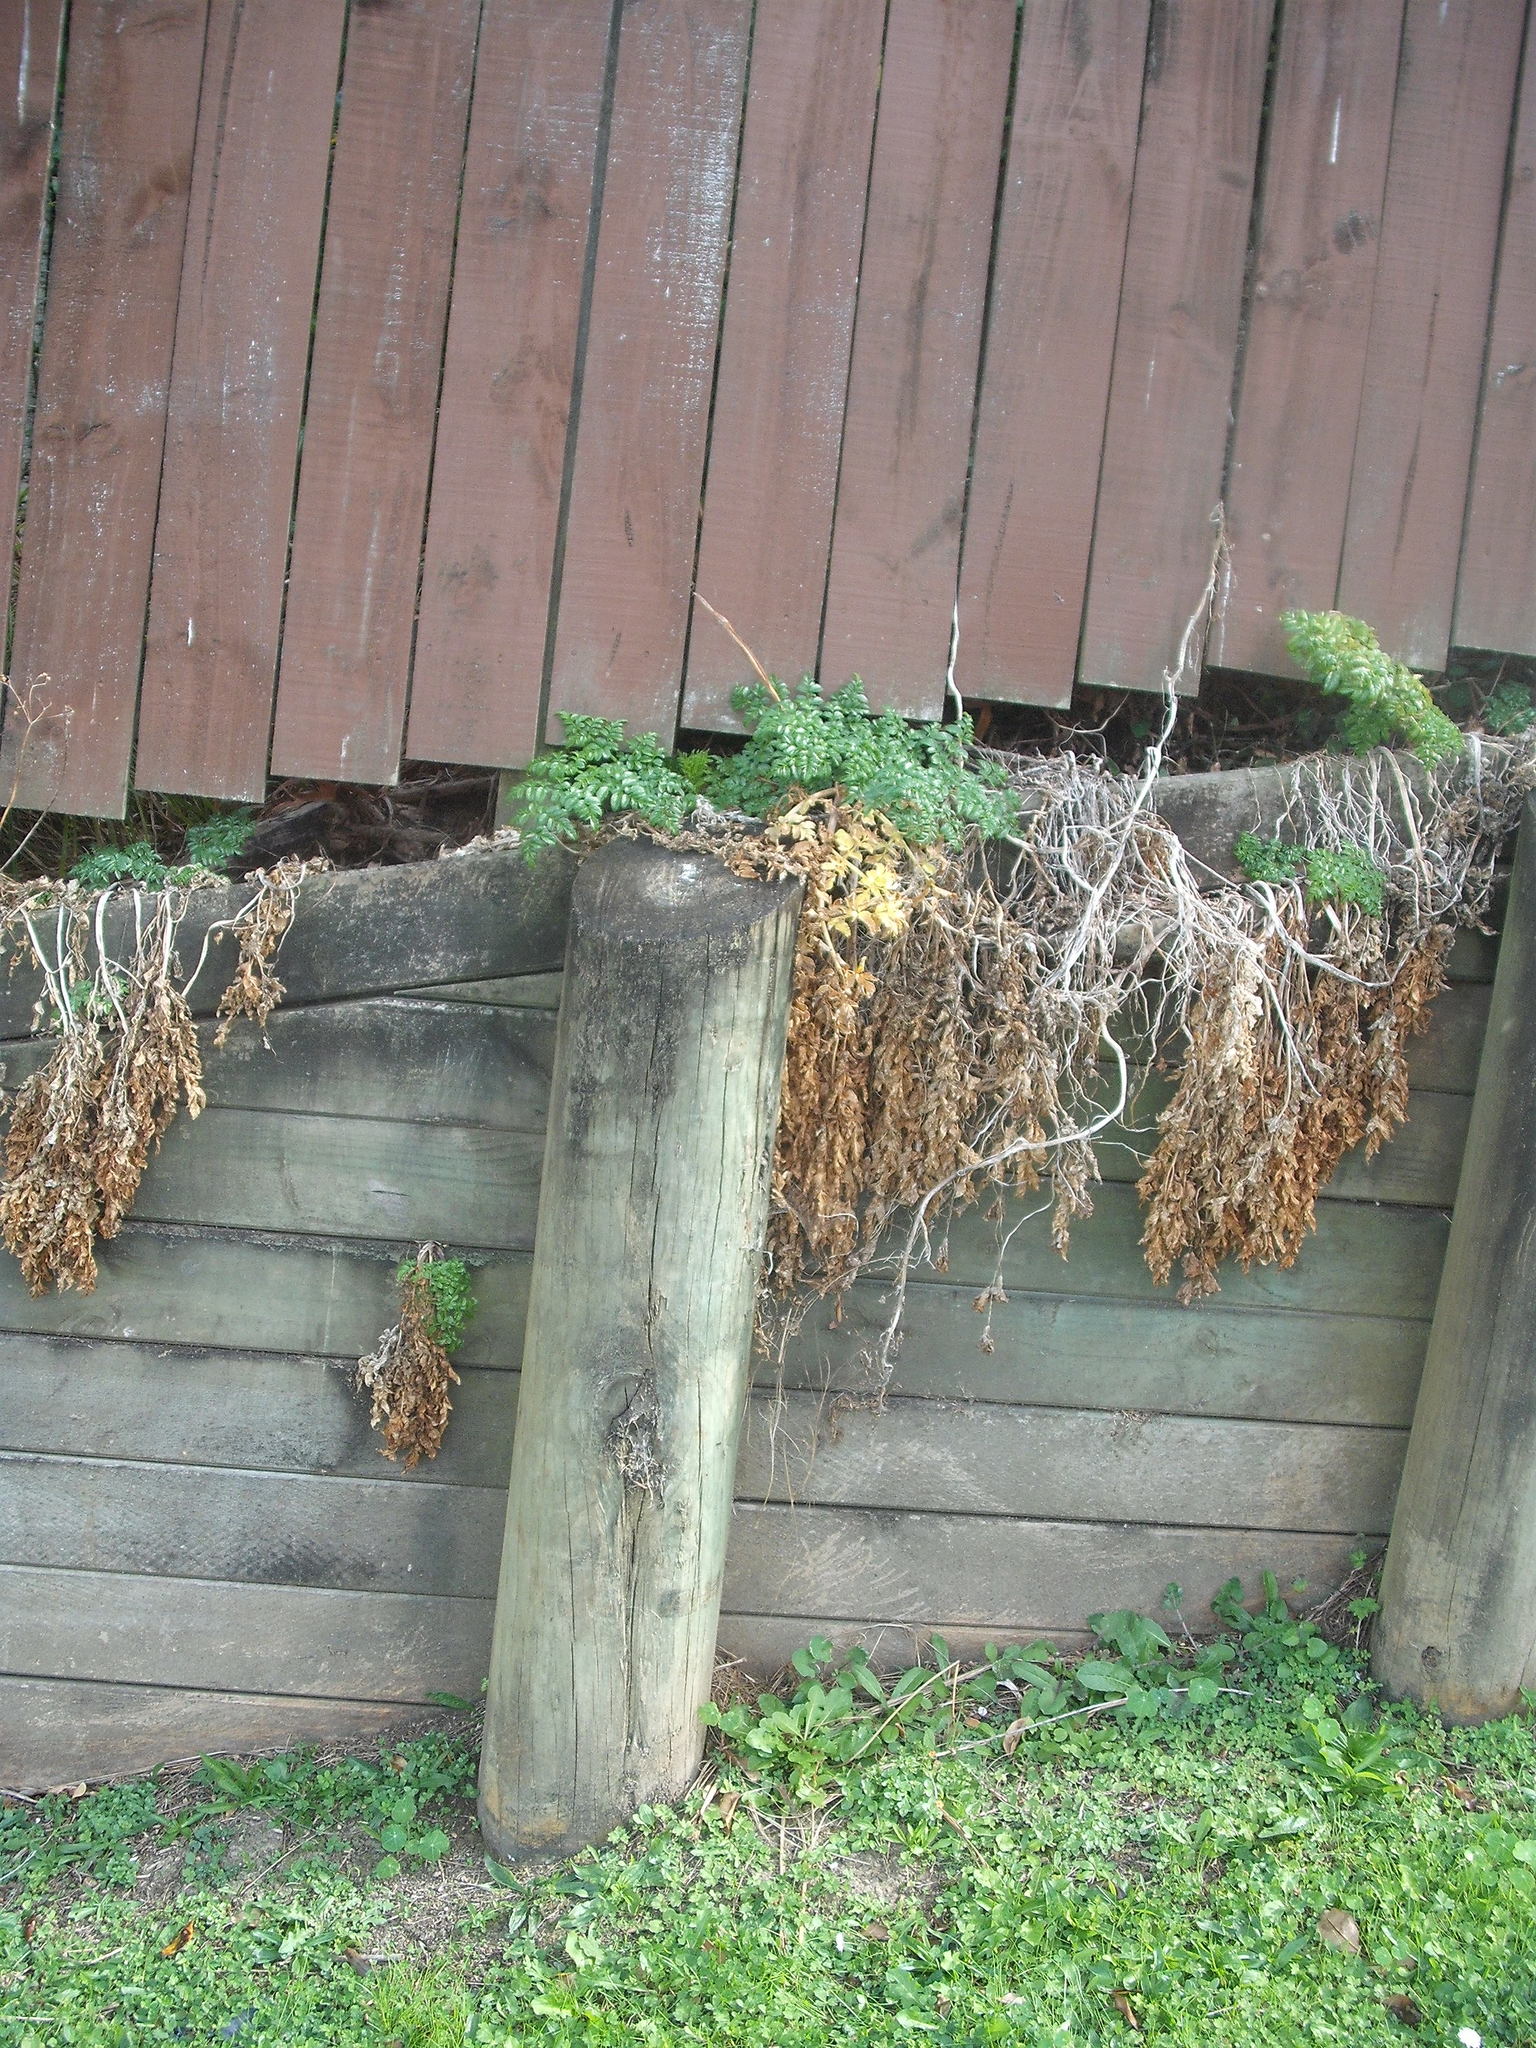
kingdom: Plantae
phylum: Tracheophyta
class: Magnoliopsida
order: Apiales
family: Apiaceae
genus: Angelica
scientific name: Angelica pachycarpa
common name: Portuguese angelica
